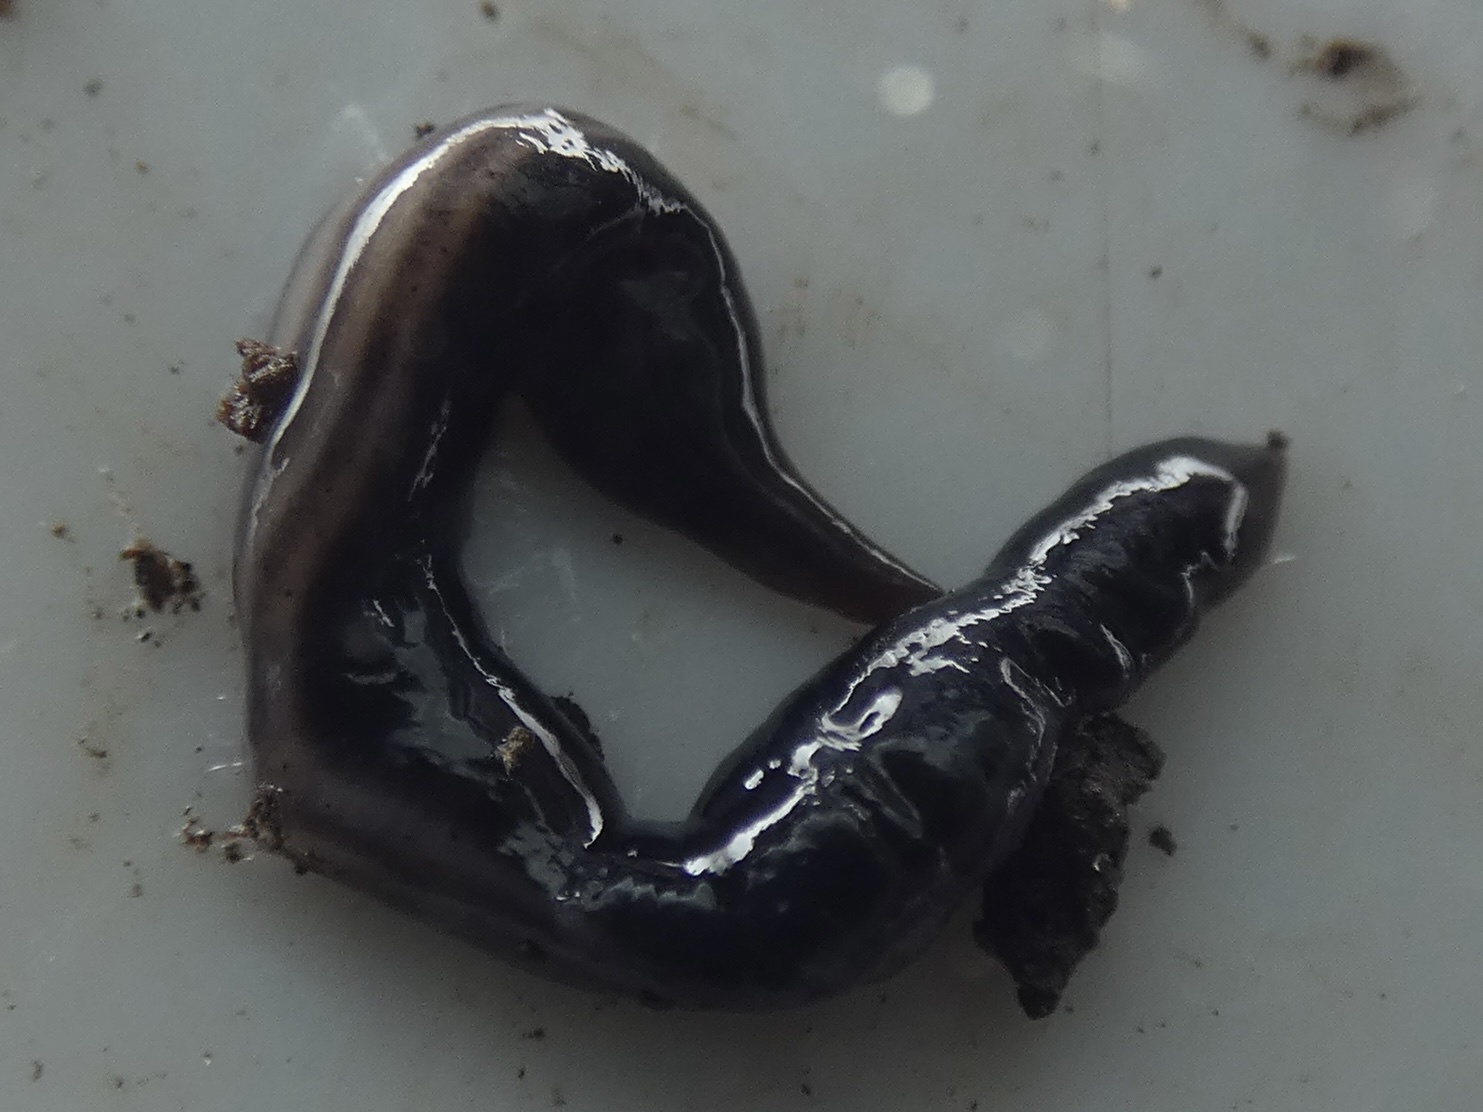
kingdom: Animalia
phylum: Platyhelminthes
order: Tricladida
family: Geoplanidae
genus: Parakontikia
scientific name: Parakontikia ventrolineata
